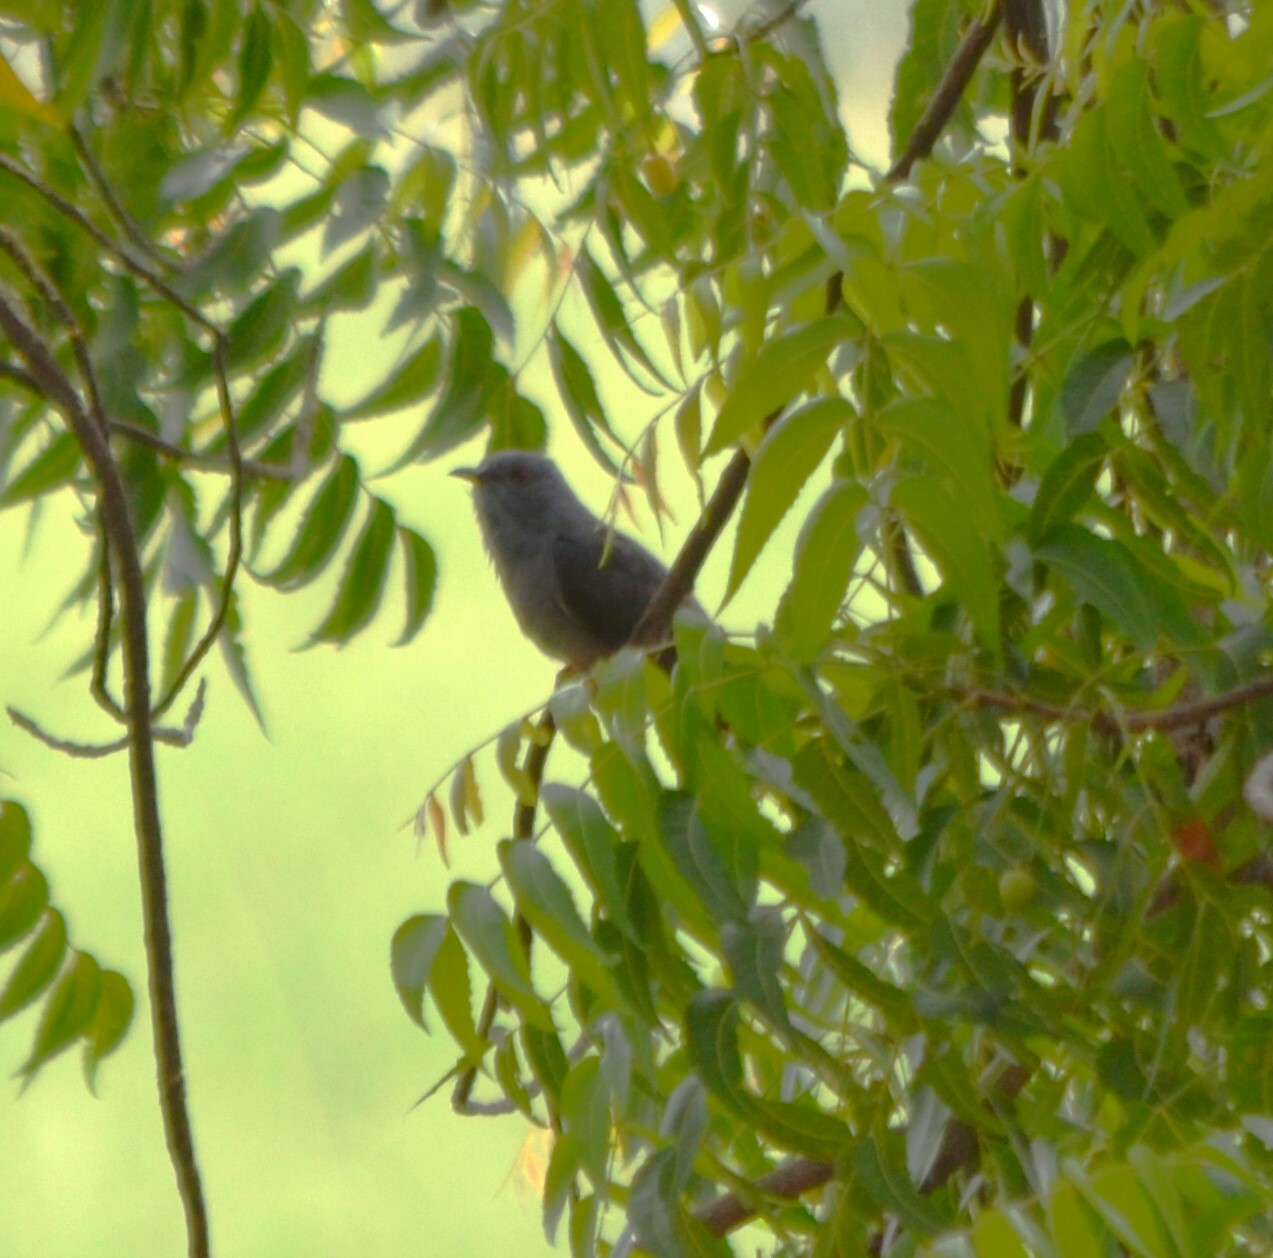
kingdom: Animalia
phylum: Chordata
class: Aves
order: Cuculiformes
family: Cuculidae
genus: Cacomantis
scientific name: Cacomantis passerinus
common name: Grey-bellied cuckoo
